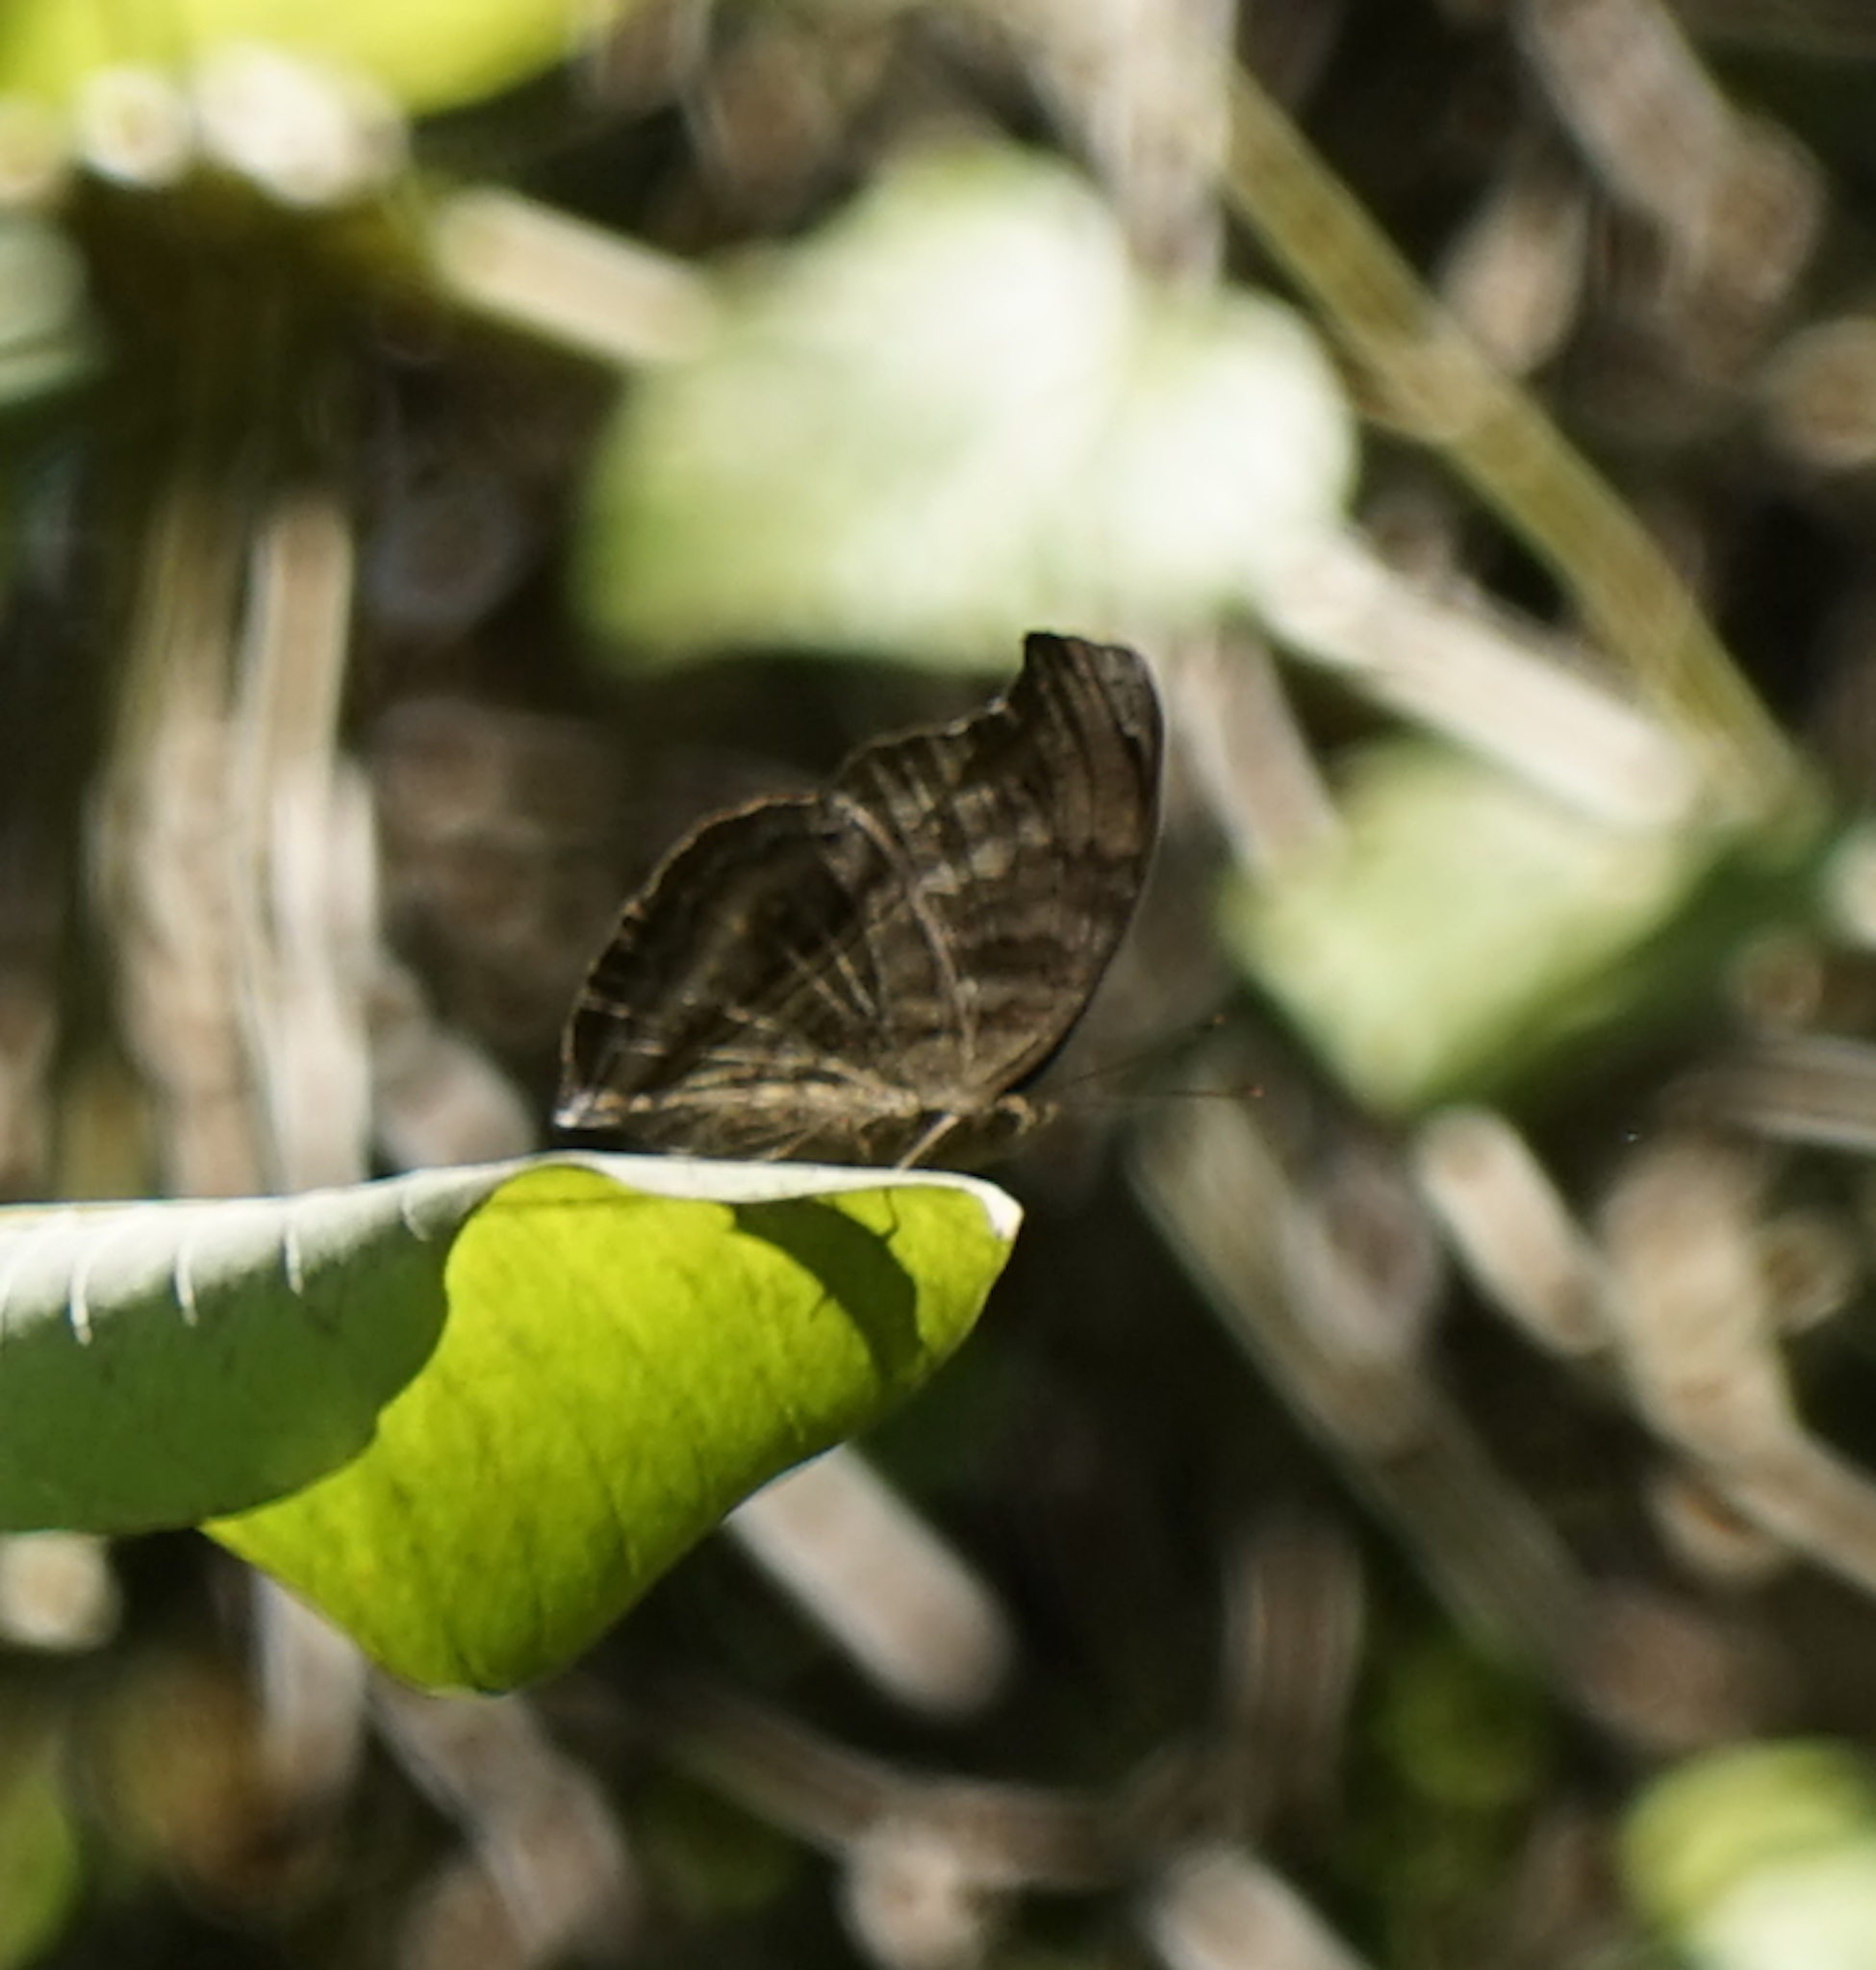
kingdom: Animalia
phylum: Arthropoda
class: Insecta
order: Lepidoptera
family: Nymphalidae
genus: Junonia
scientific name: Junonia iphita
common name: Chocolate pansy
